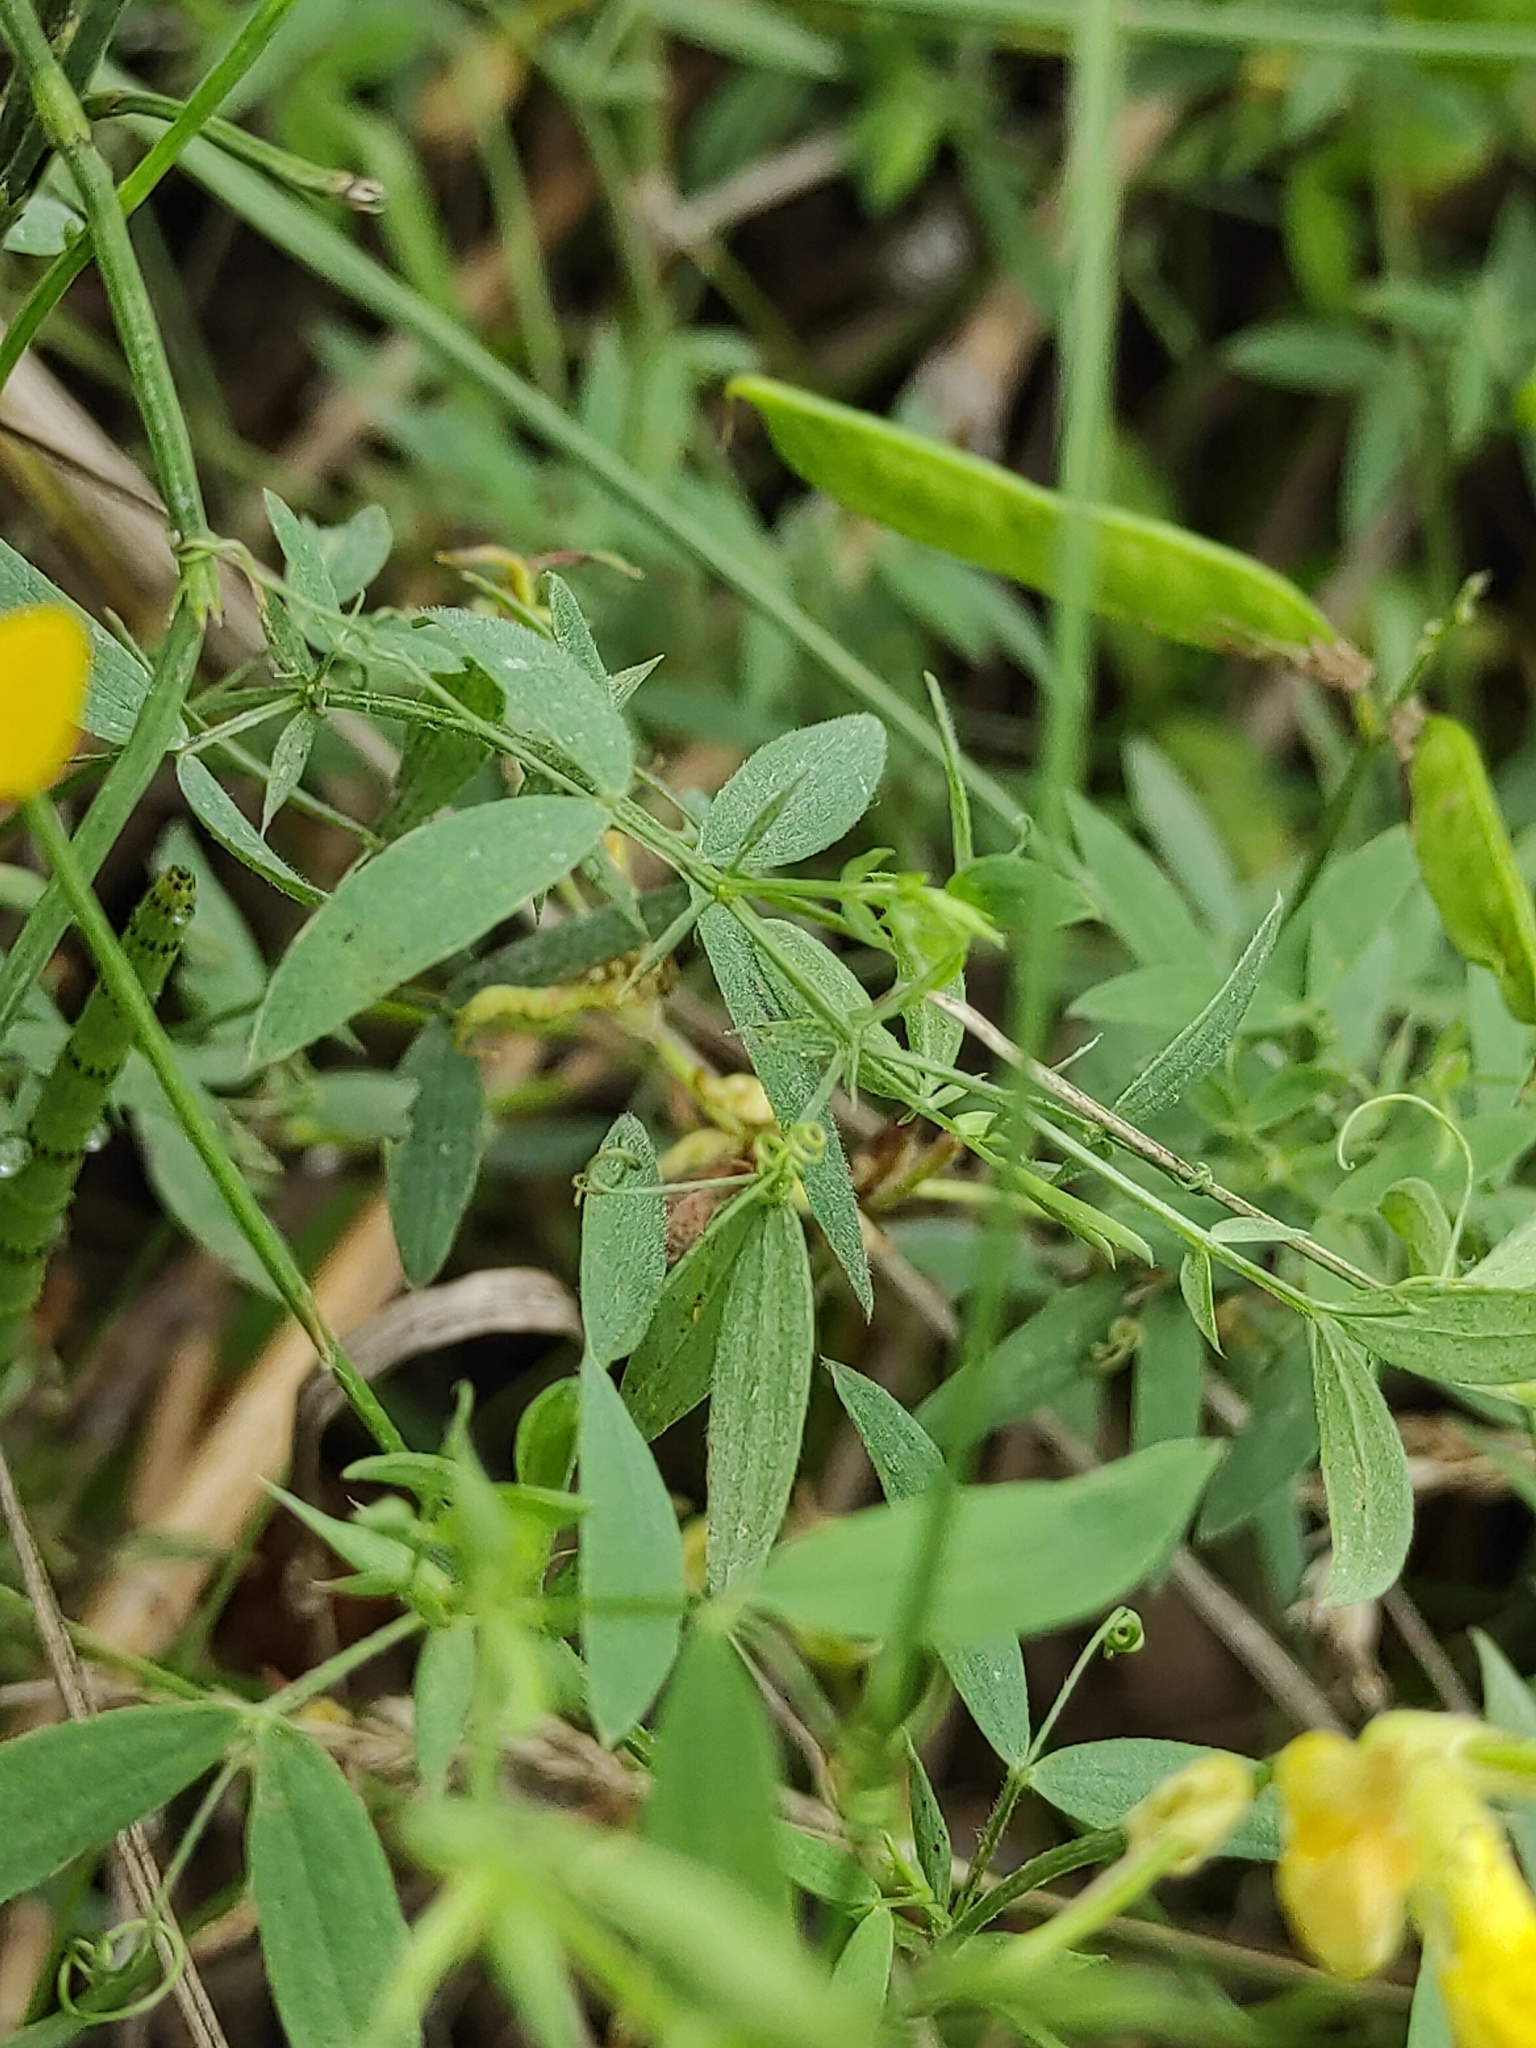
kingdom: Plantae
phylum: Tracheophyta
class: Magnoliopsida
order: Fabales
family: Fabaceae
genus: Lathyrus
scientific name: Lathyrus pratensis
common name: Meadow vetchling
